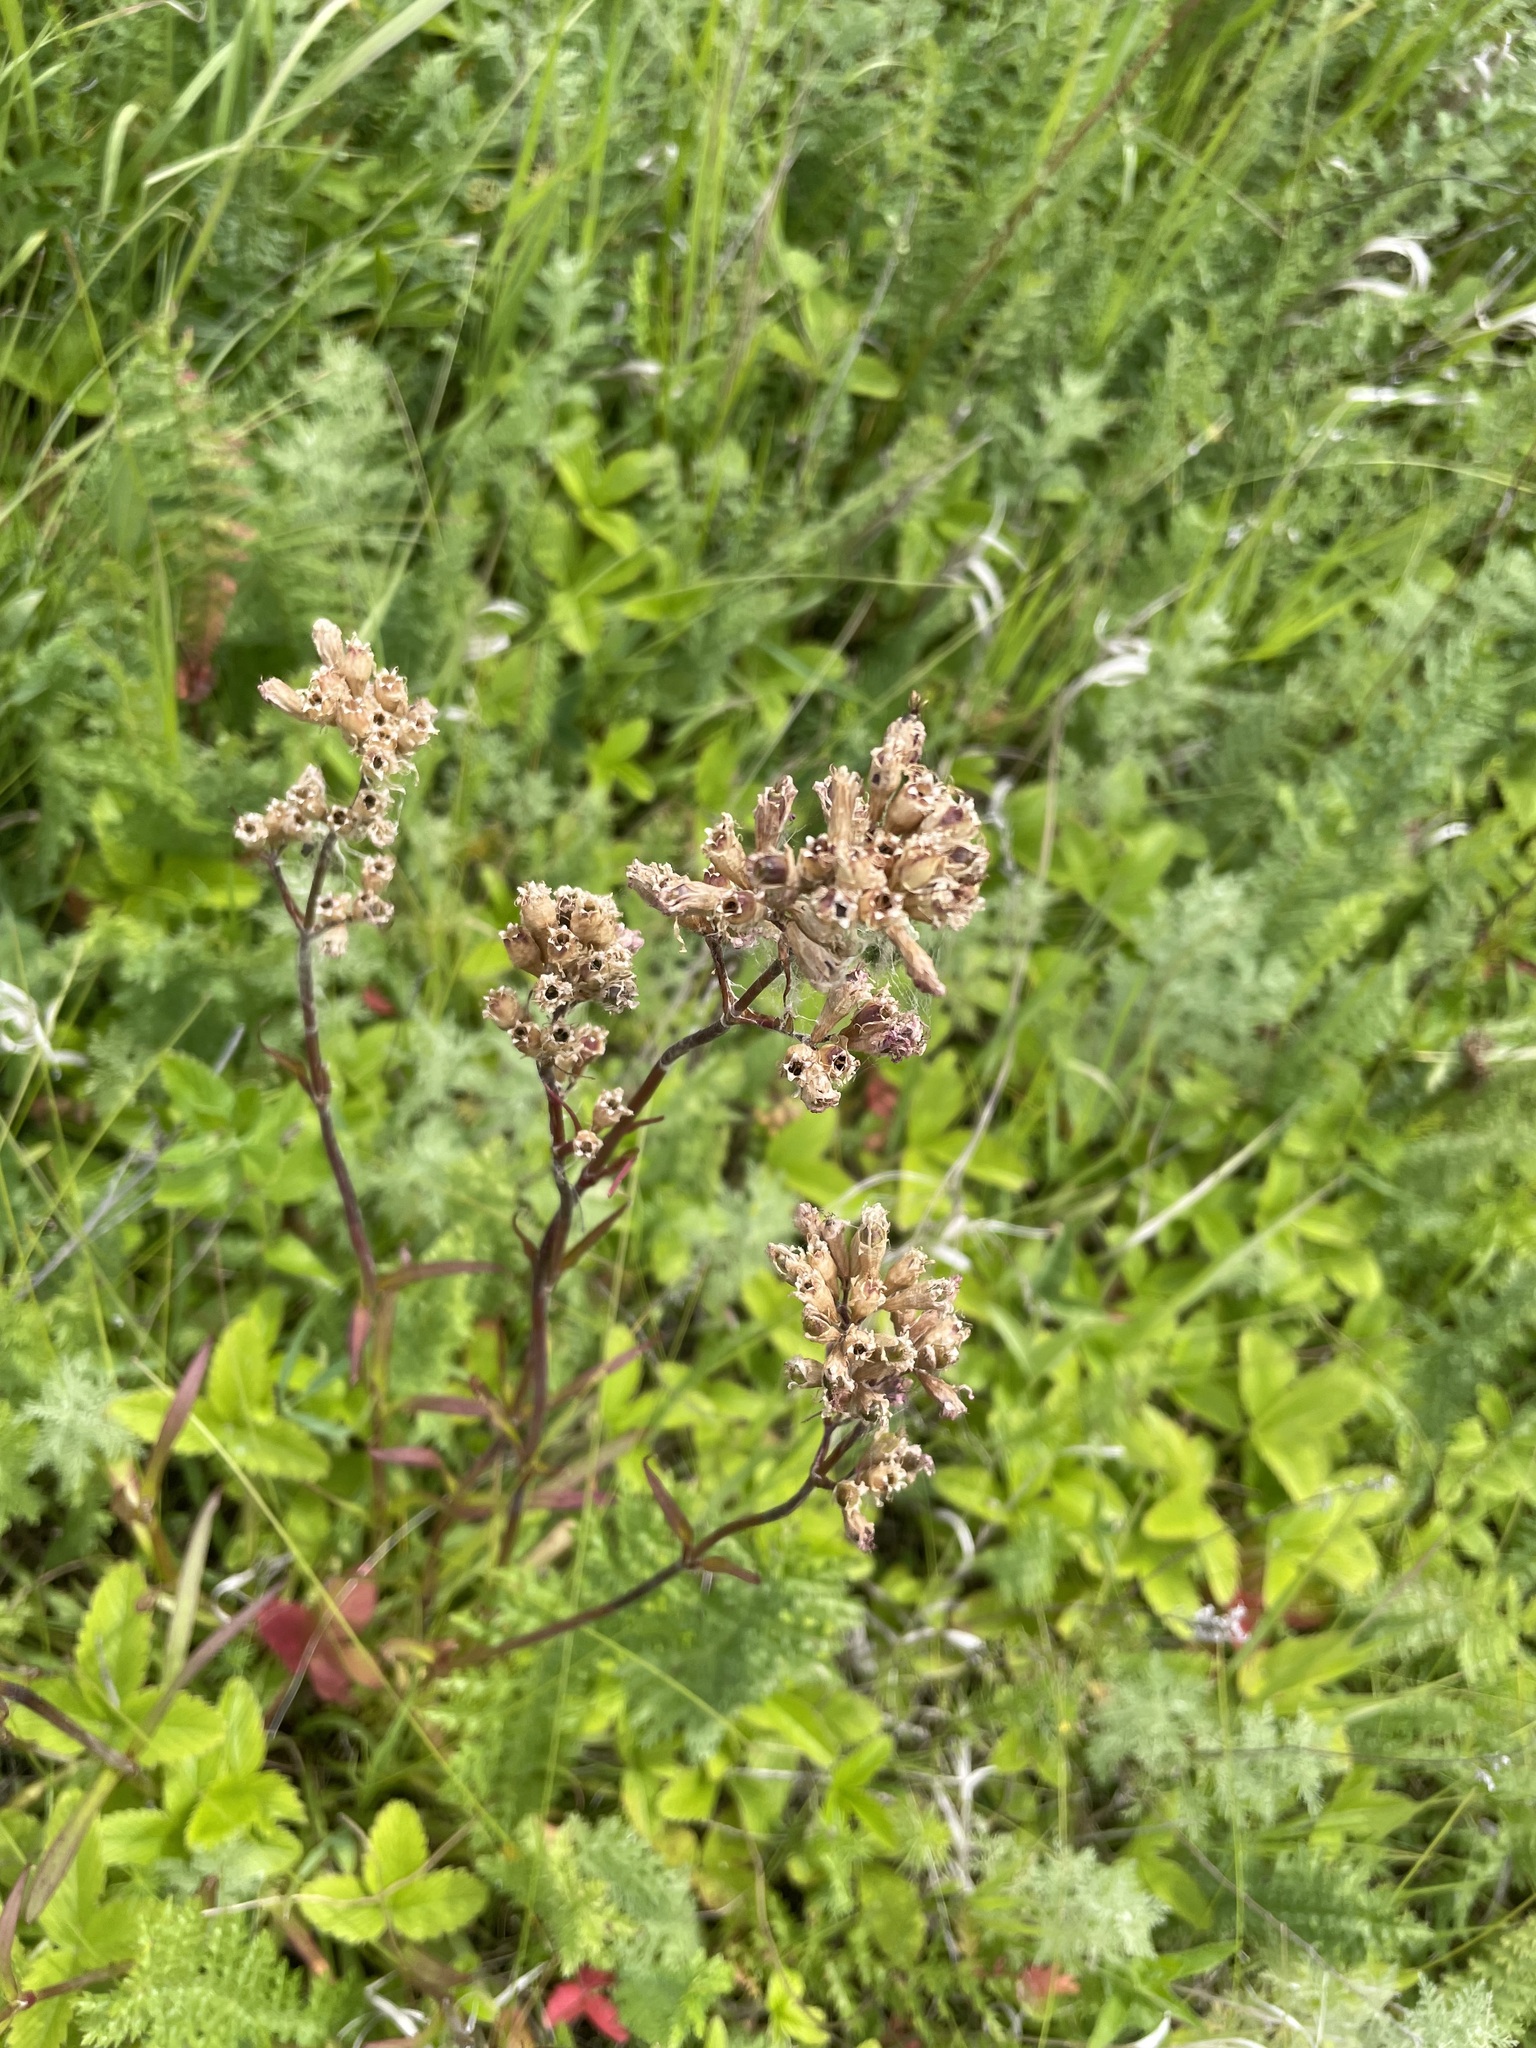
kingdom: Plantae
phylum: Tracheophyta
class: Magnoliopsida
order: Caryophyllales
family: Caryophyllaceae
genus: Viscaria
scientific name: Viscaria vulgaris
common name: Clammy campion
